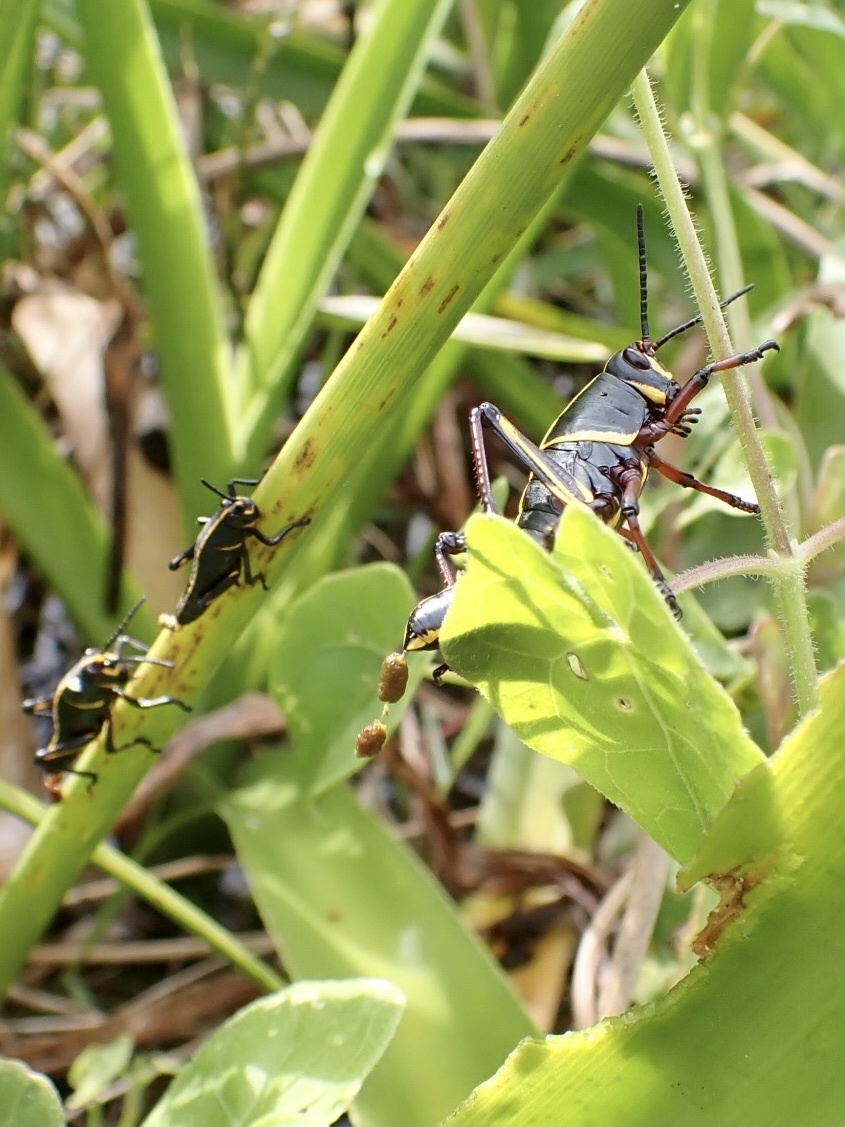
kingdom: Animalia
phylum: Arthropoda
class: Insecta
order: Orthoptera
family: Romaleidae
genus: Romalea
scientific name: Romalea microptera
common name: Eastern lubber grasshopper
